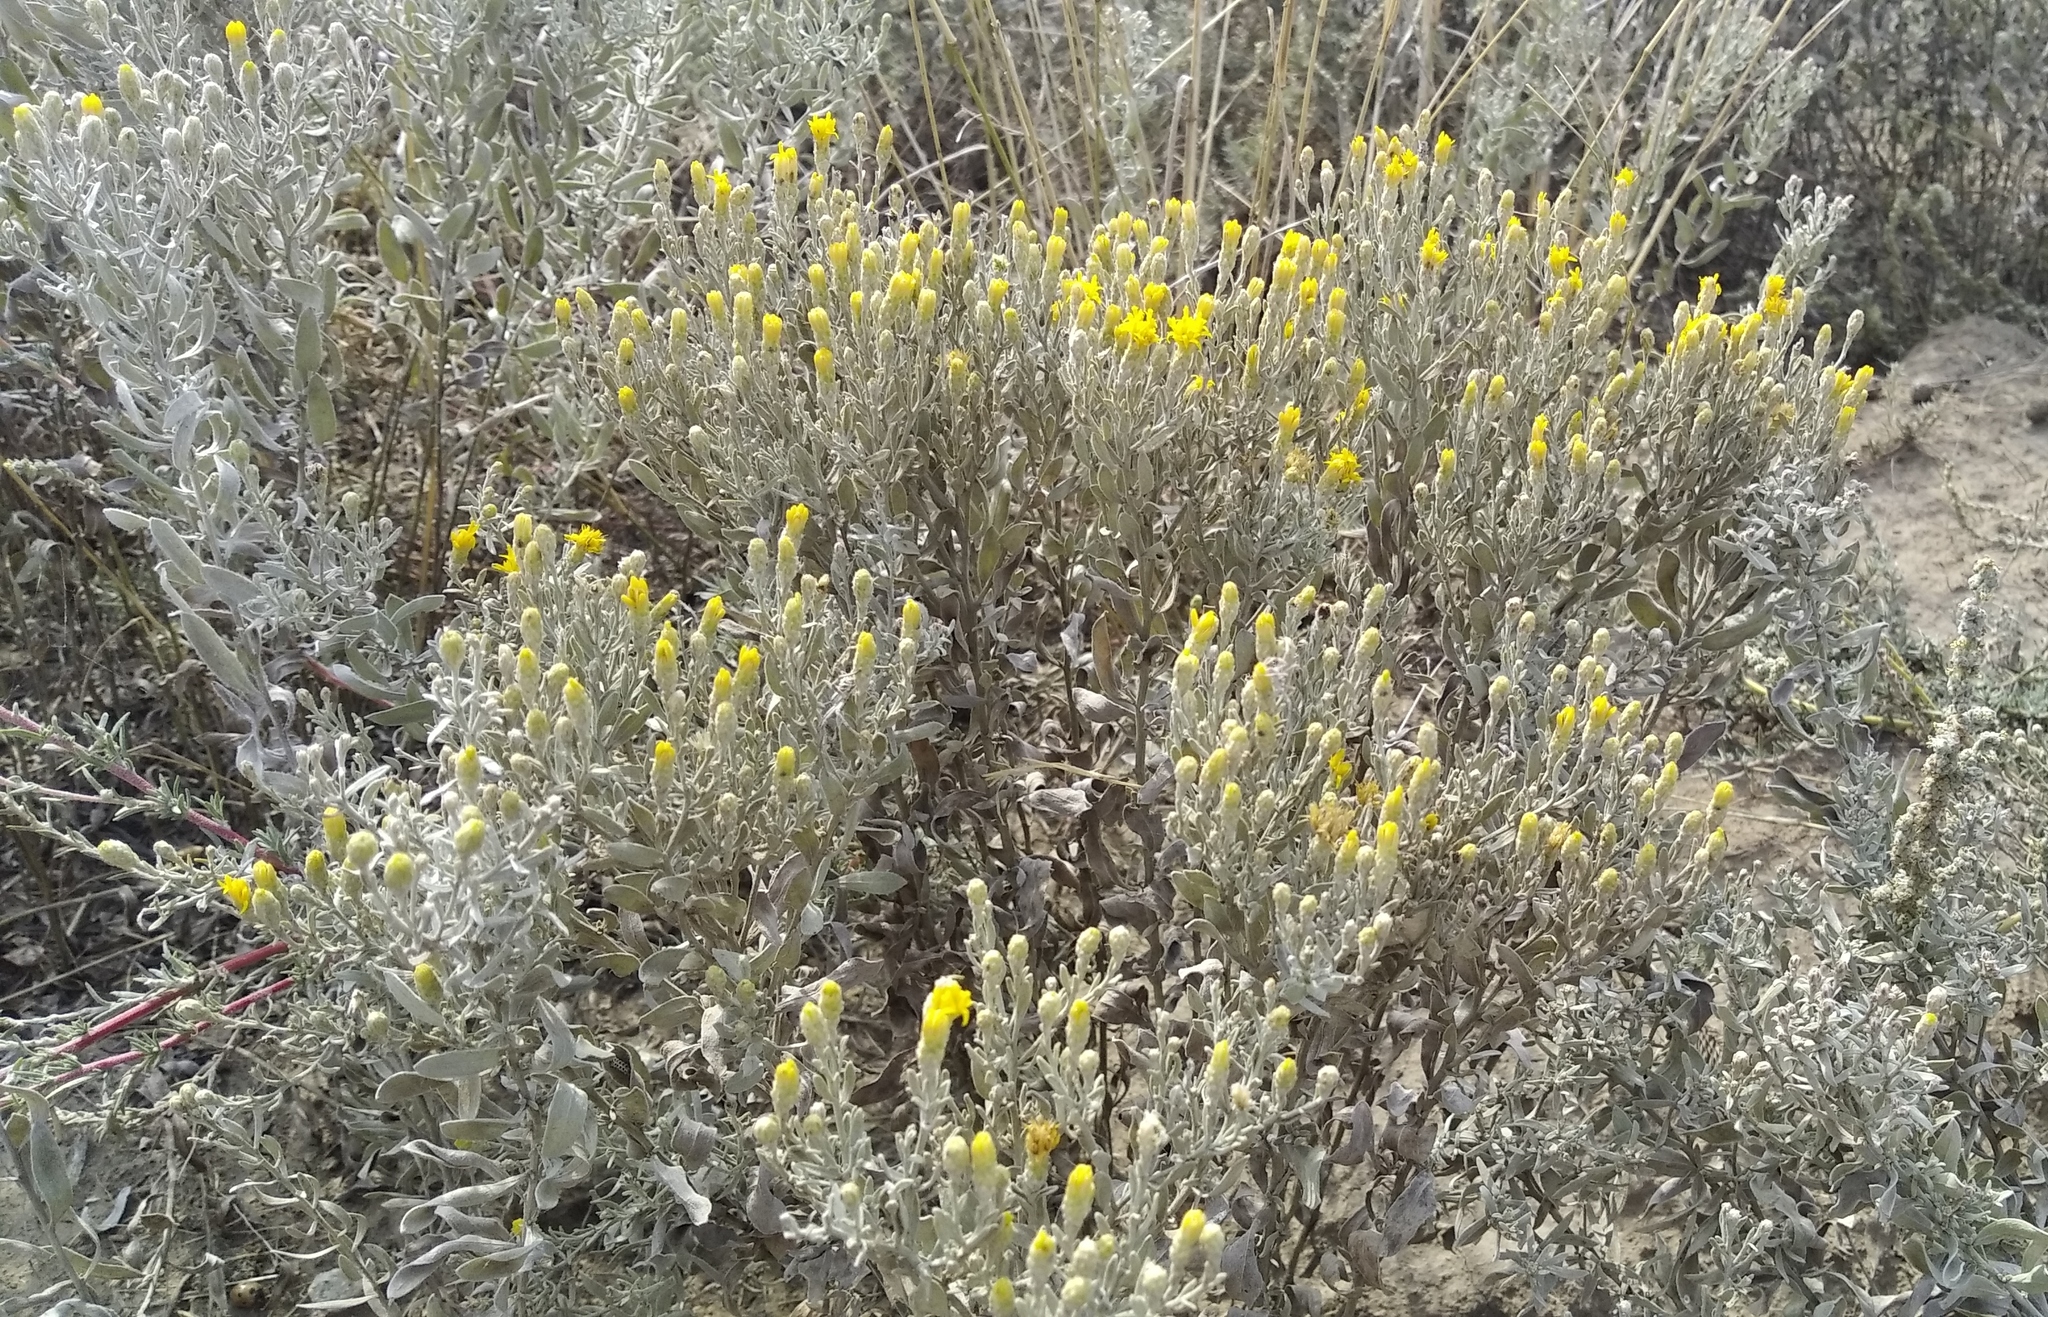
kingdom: Plantae
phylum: Tracheophyta
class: Magnoliopsida
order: Asterales
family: Asteraceae
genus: Galatella
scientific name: Galatella villosa
